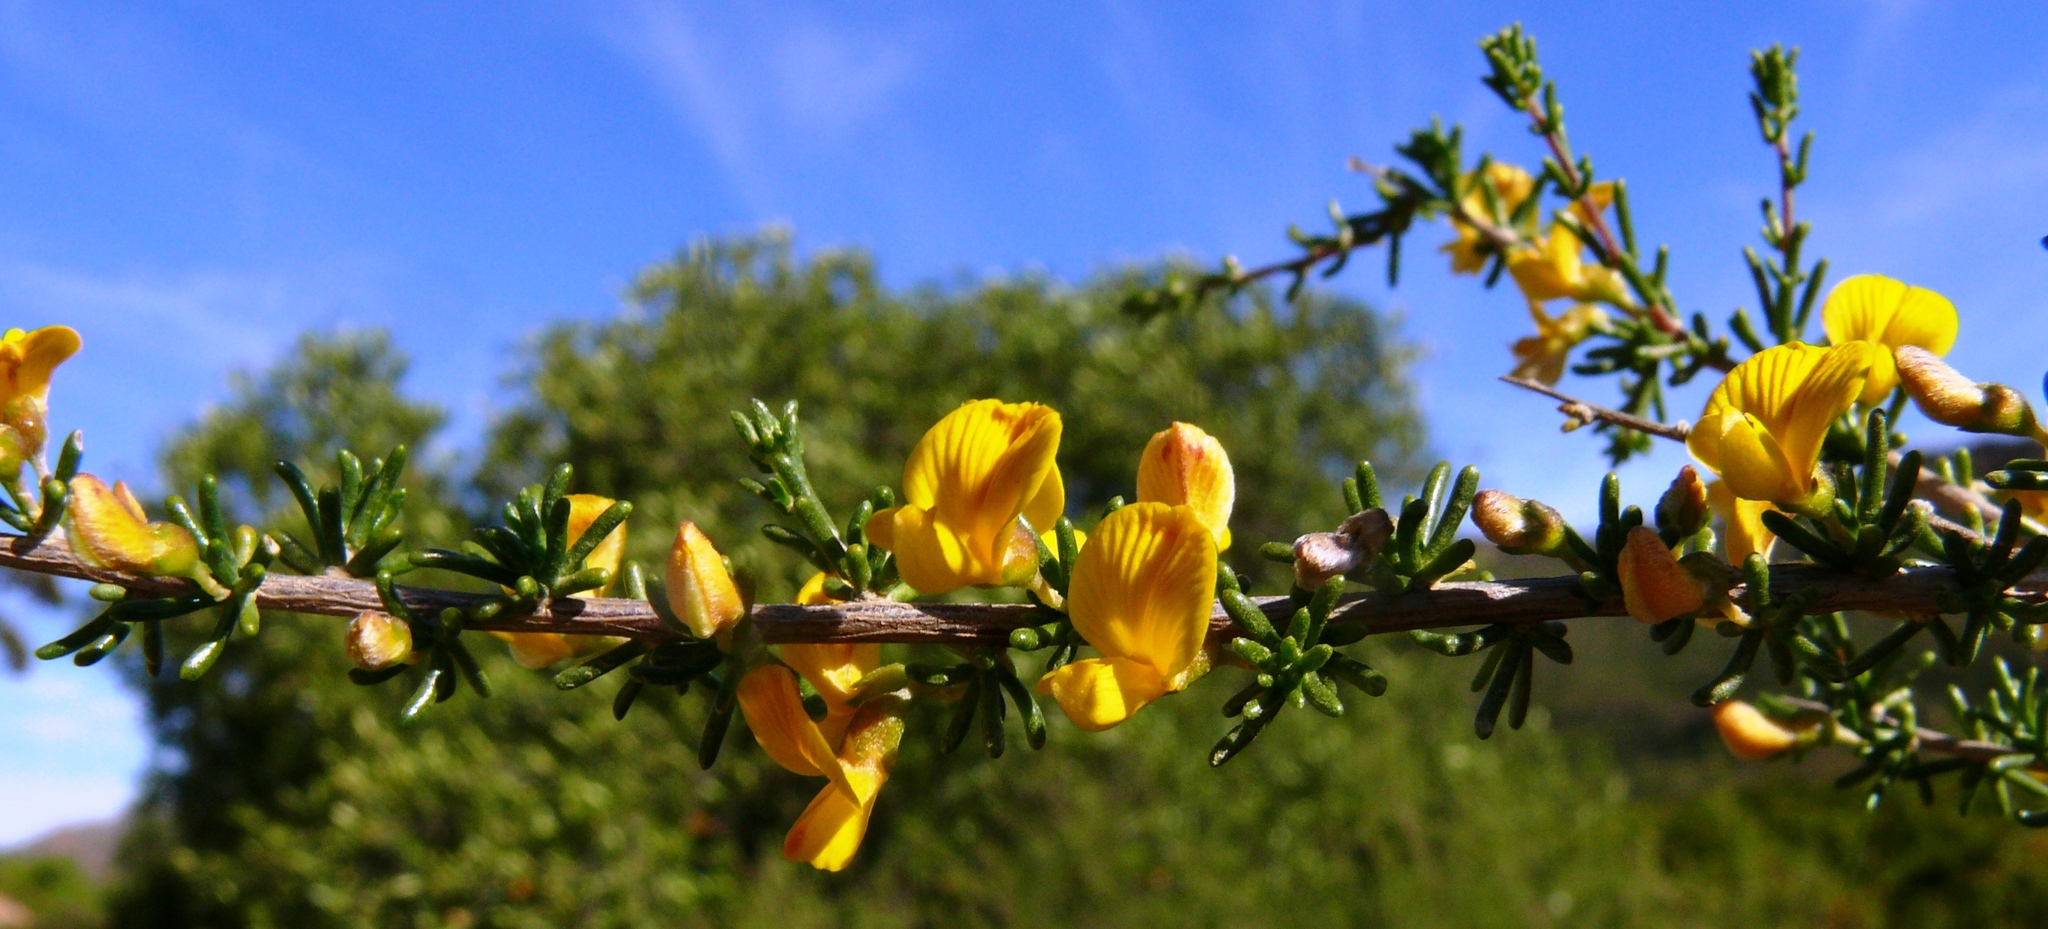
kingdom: Plantae
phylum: Tracheophyta
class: Magnoliopsida
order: Fabales
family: Fabaceae
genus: Aspalathus
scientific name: Aspalathus spinescens
